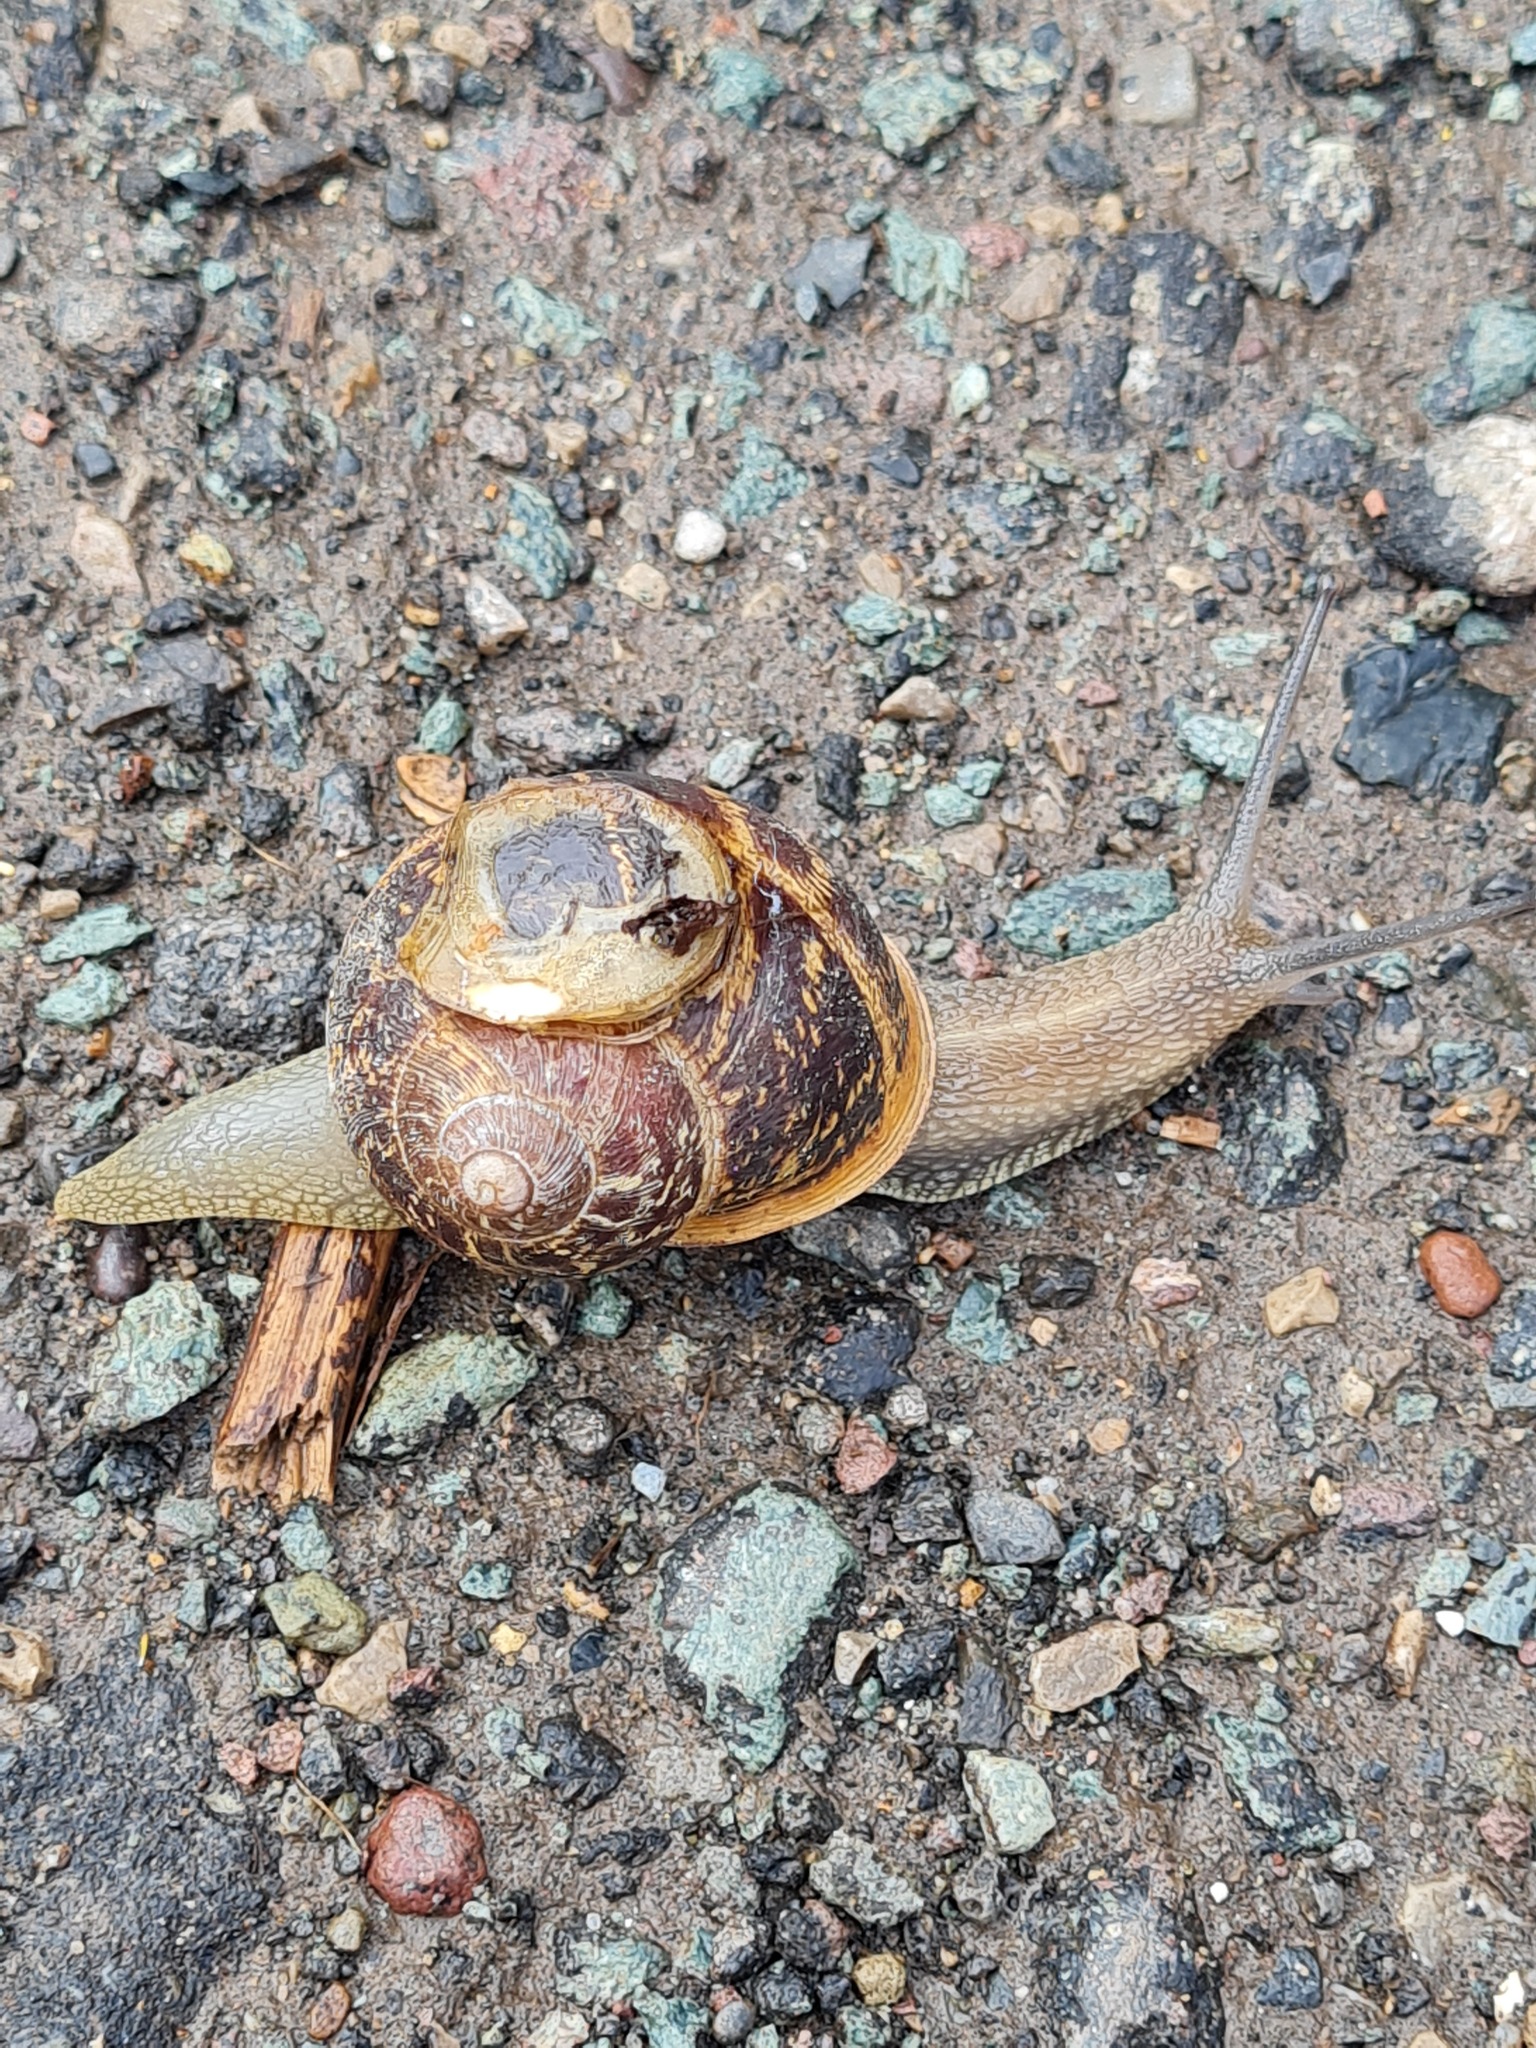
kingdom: Animalia
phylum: Mollusca
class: Gastropoda
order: Stylommatophora
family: Helicidae
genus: Cornu
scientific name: Cornu aspersum
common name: Brown garden snail
